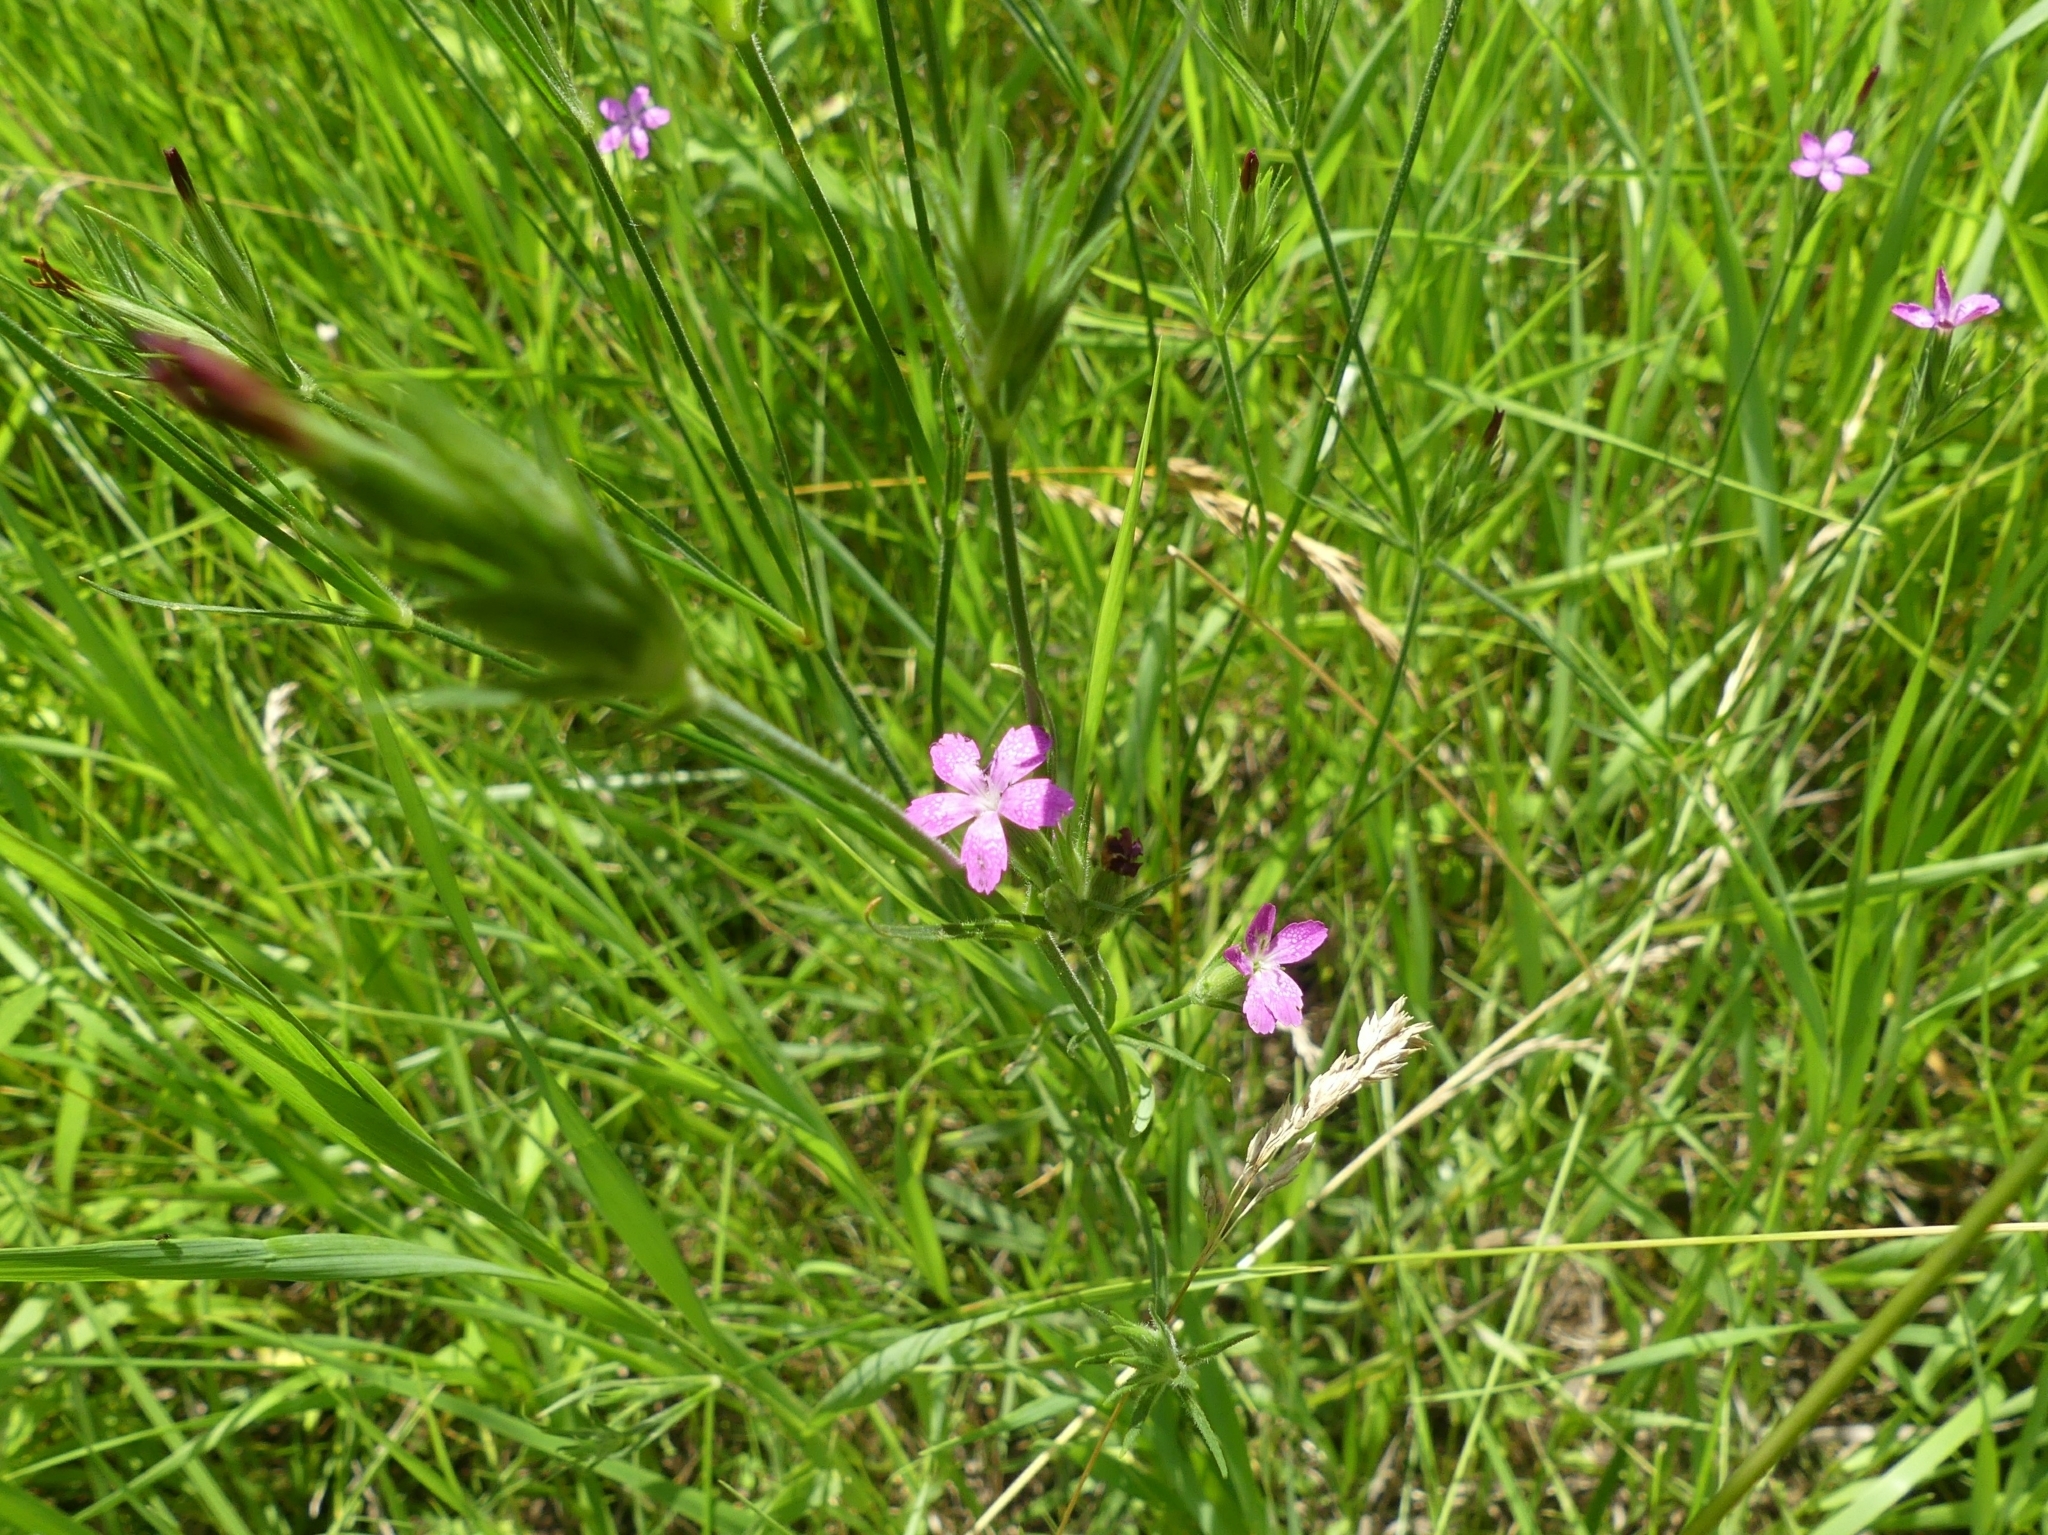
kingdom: Plantae
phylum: Tracheophyta
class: Magnoliopsida
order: Caryophyllales
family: Caryophyllaceae
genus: Dianthus
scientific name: Dianthus armeria
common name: Deptford pink
